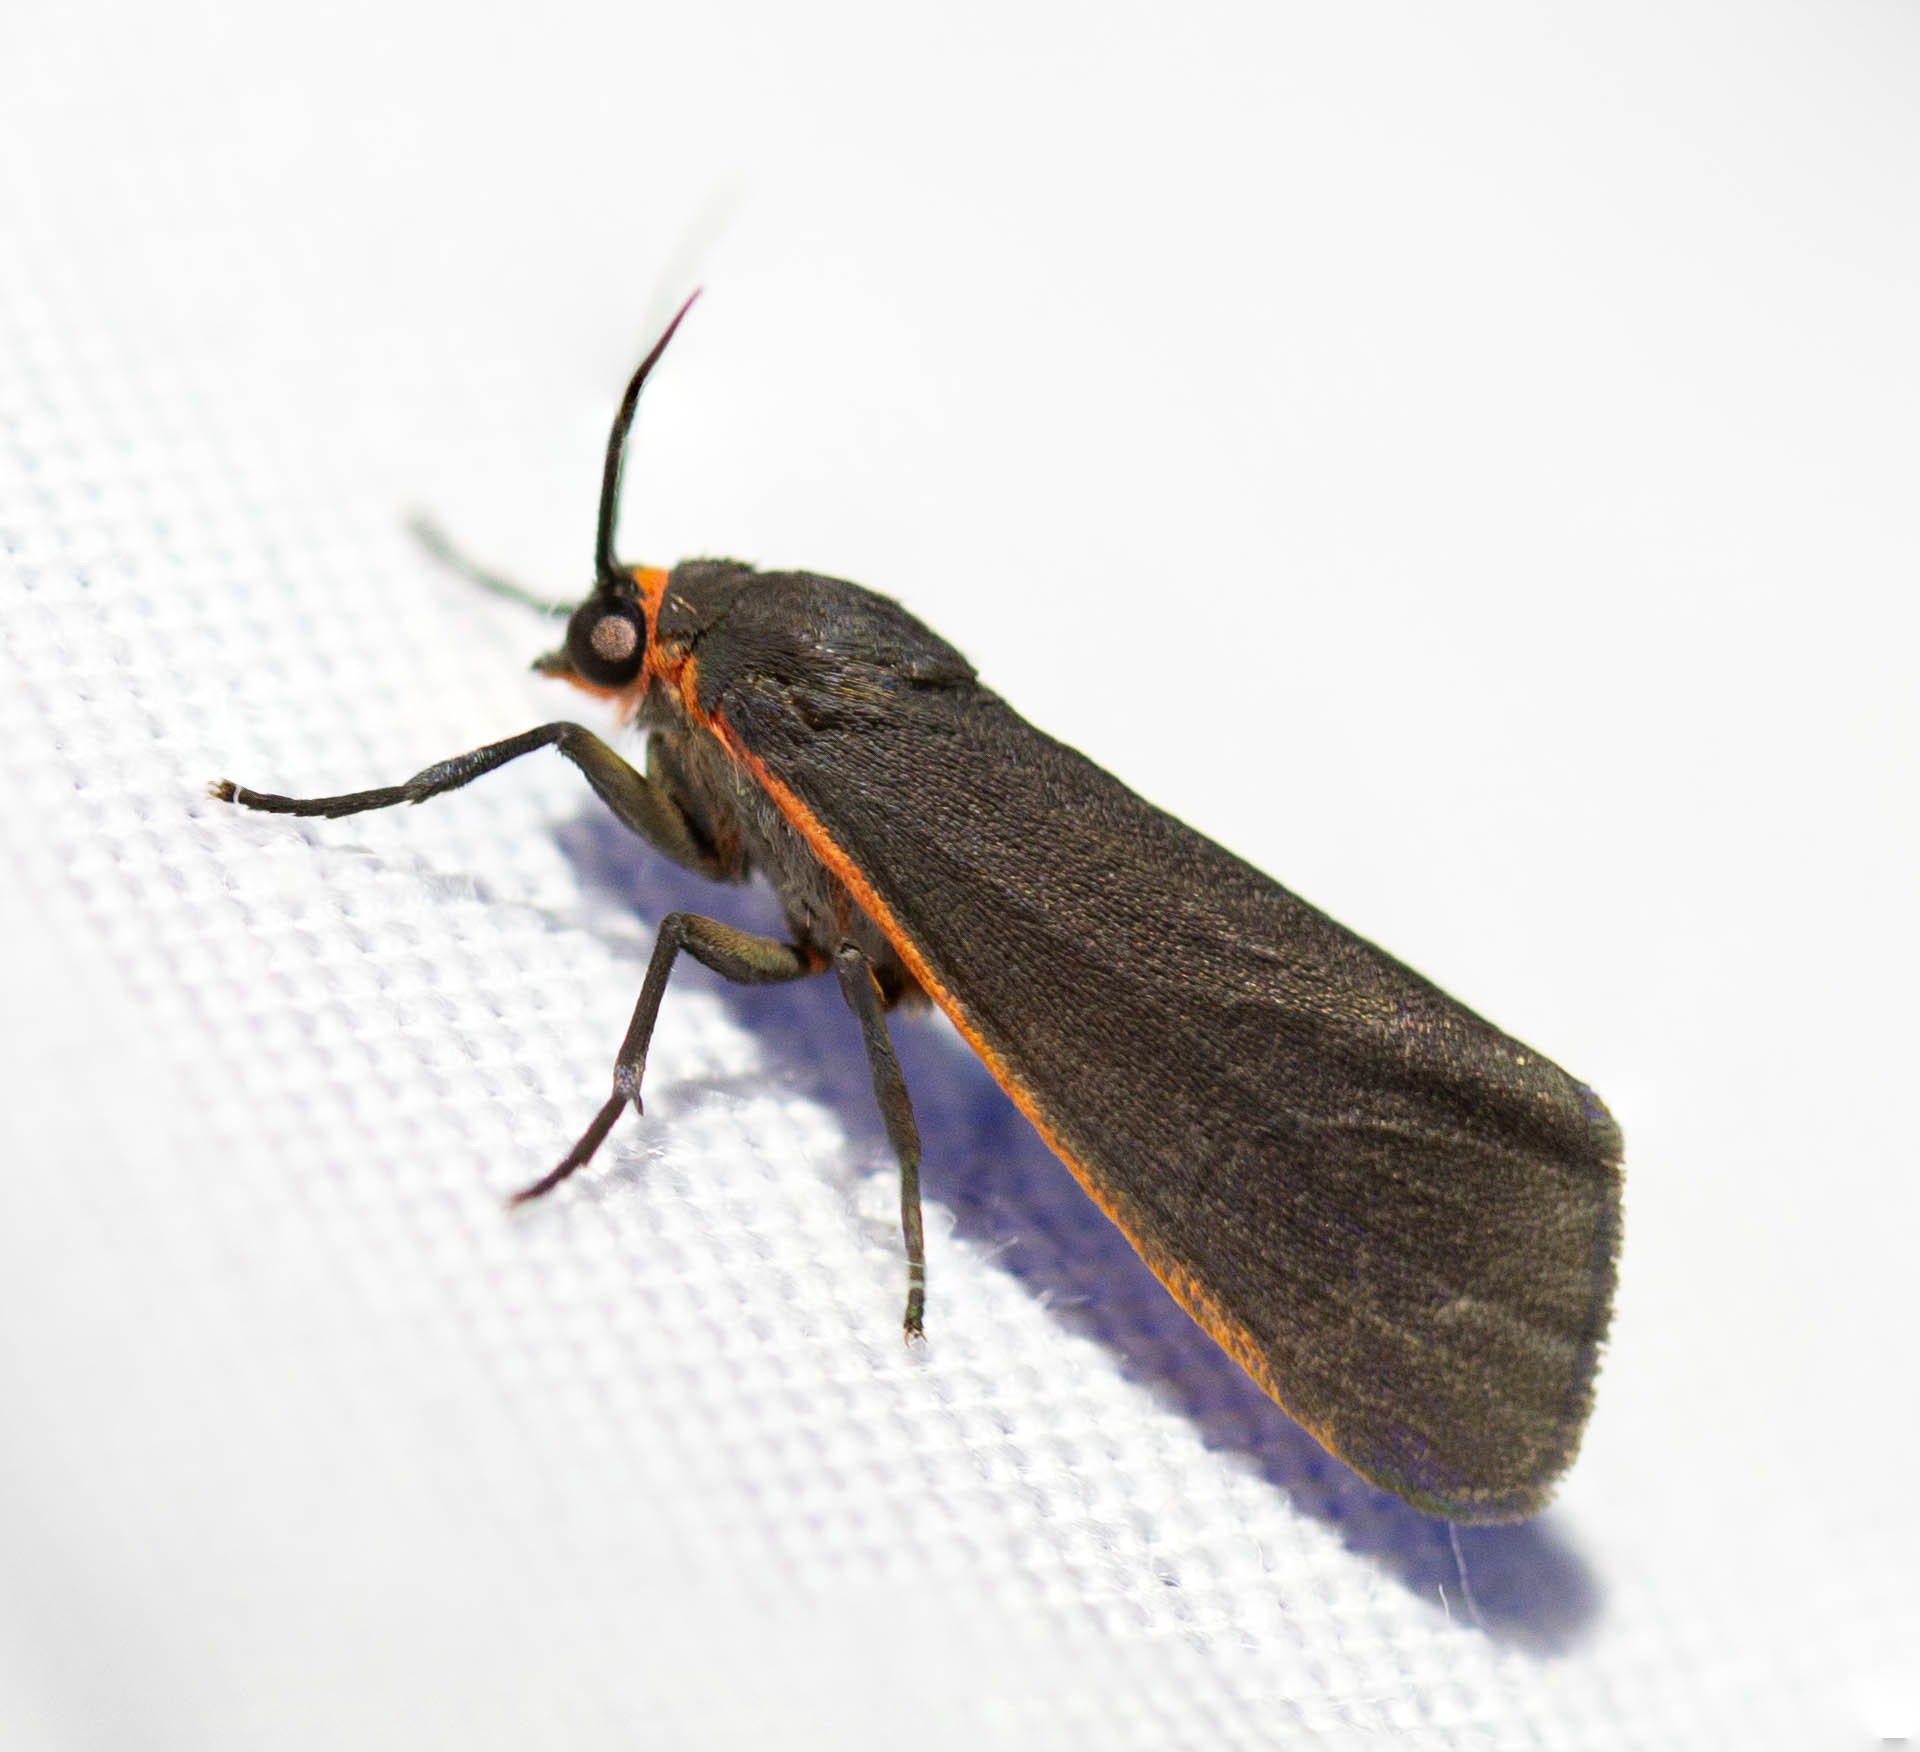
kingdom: Animalia
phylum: Arthropoda
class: Insecta
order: Lepidoptera
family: Erebidae
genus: Virbia
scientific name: Virbia laeta
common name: Joyful holomelina moth
